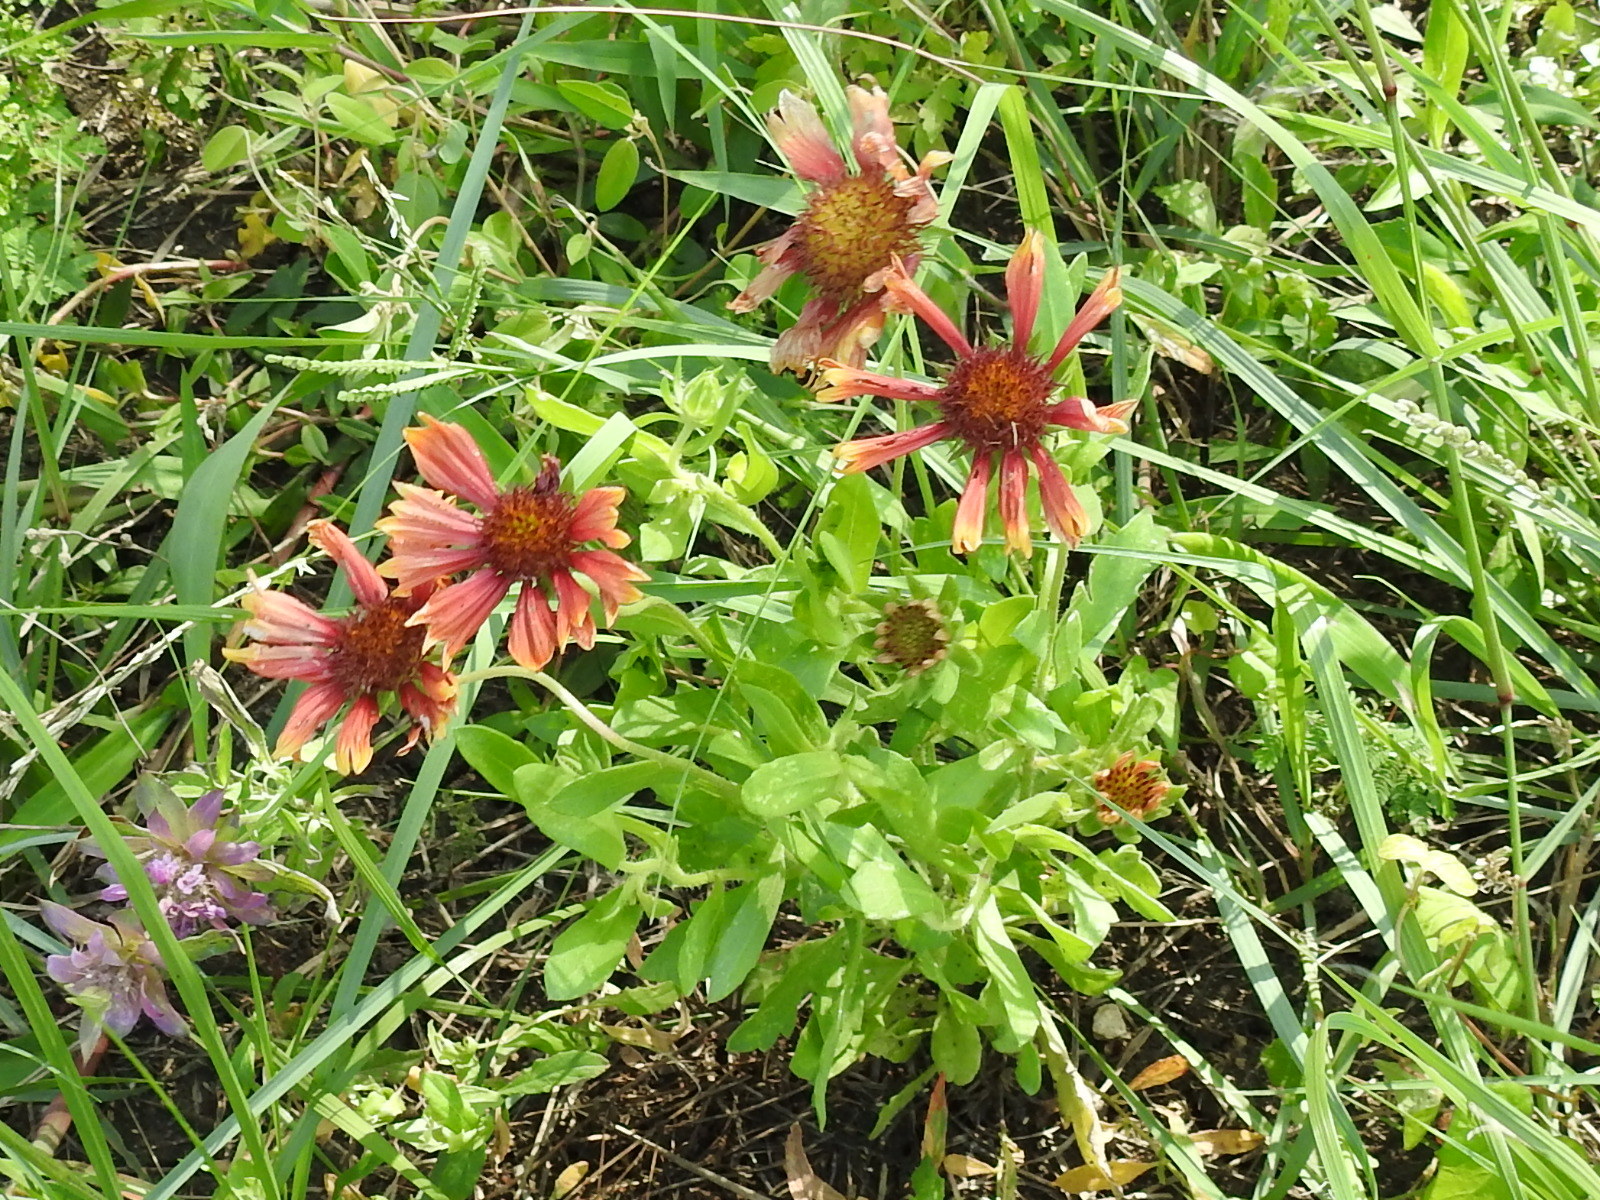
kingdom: Plantae
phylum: Tracheophyta
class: Magnoliopsida
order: Asterales
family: Asteraceae
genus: Gaillardia
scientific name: Gaillardia pulchella
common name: Firewheel
